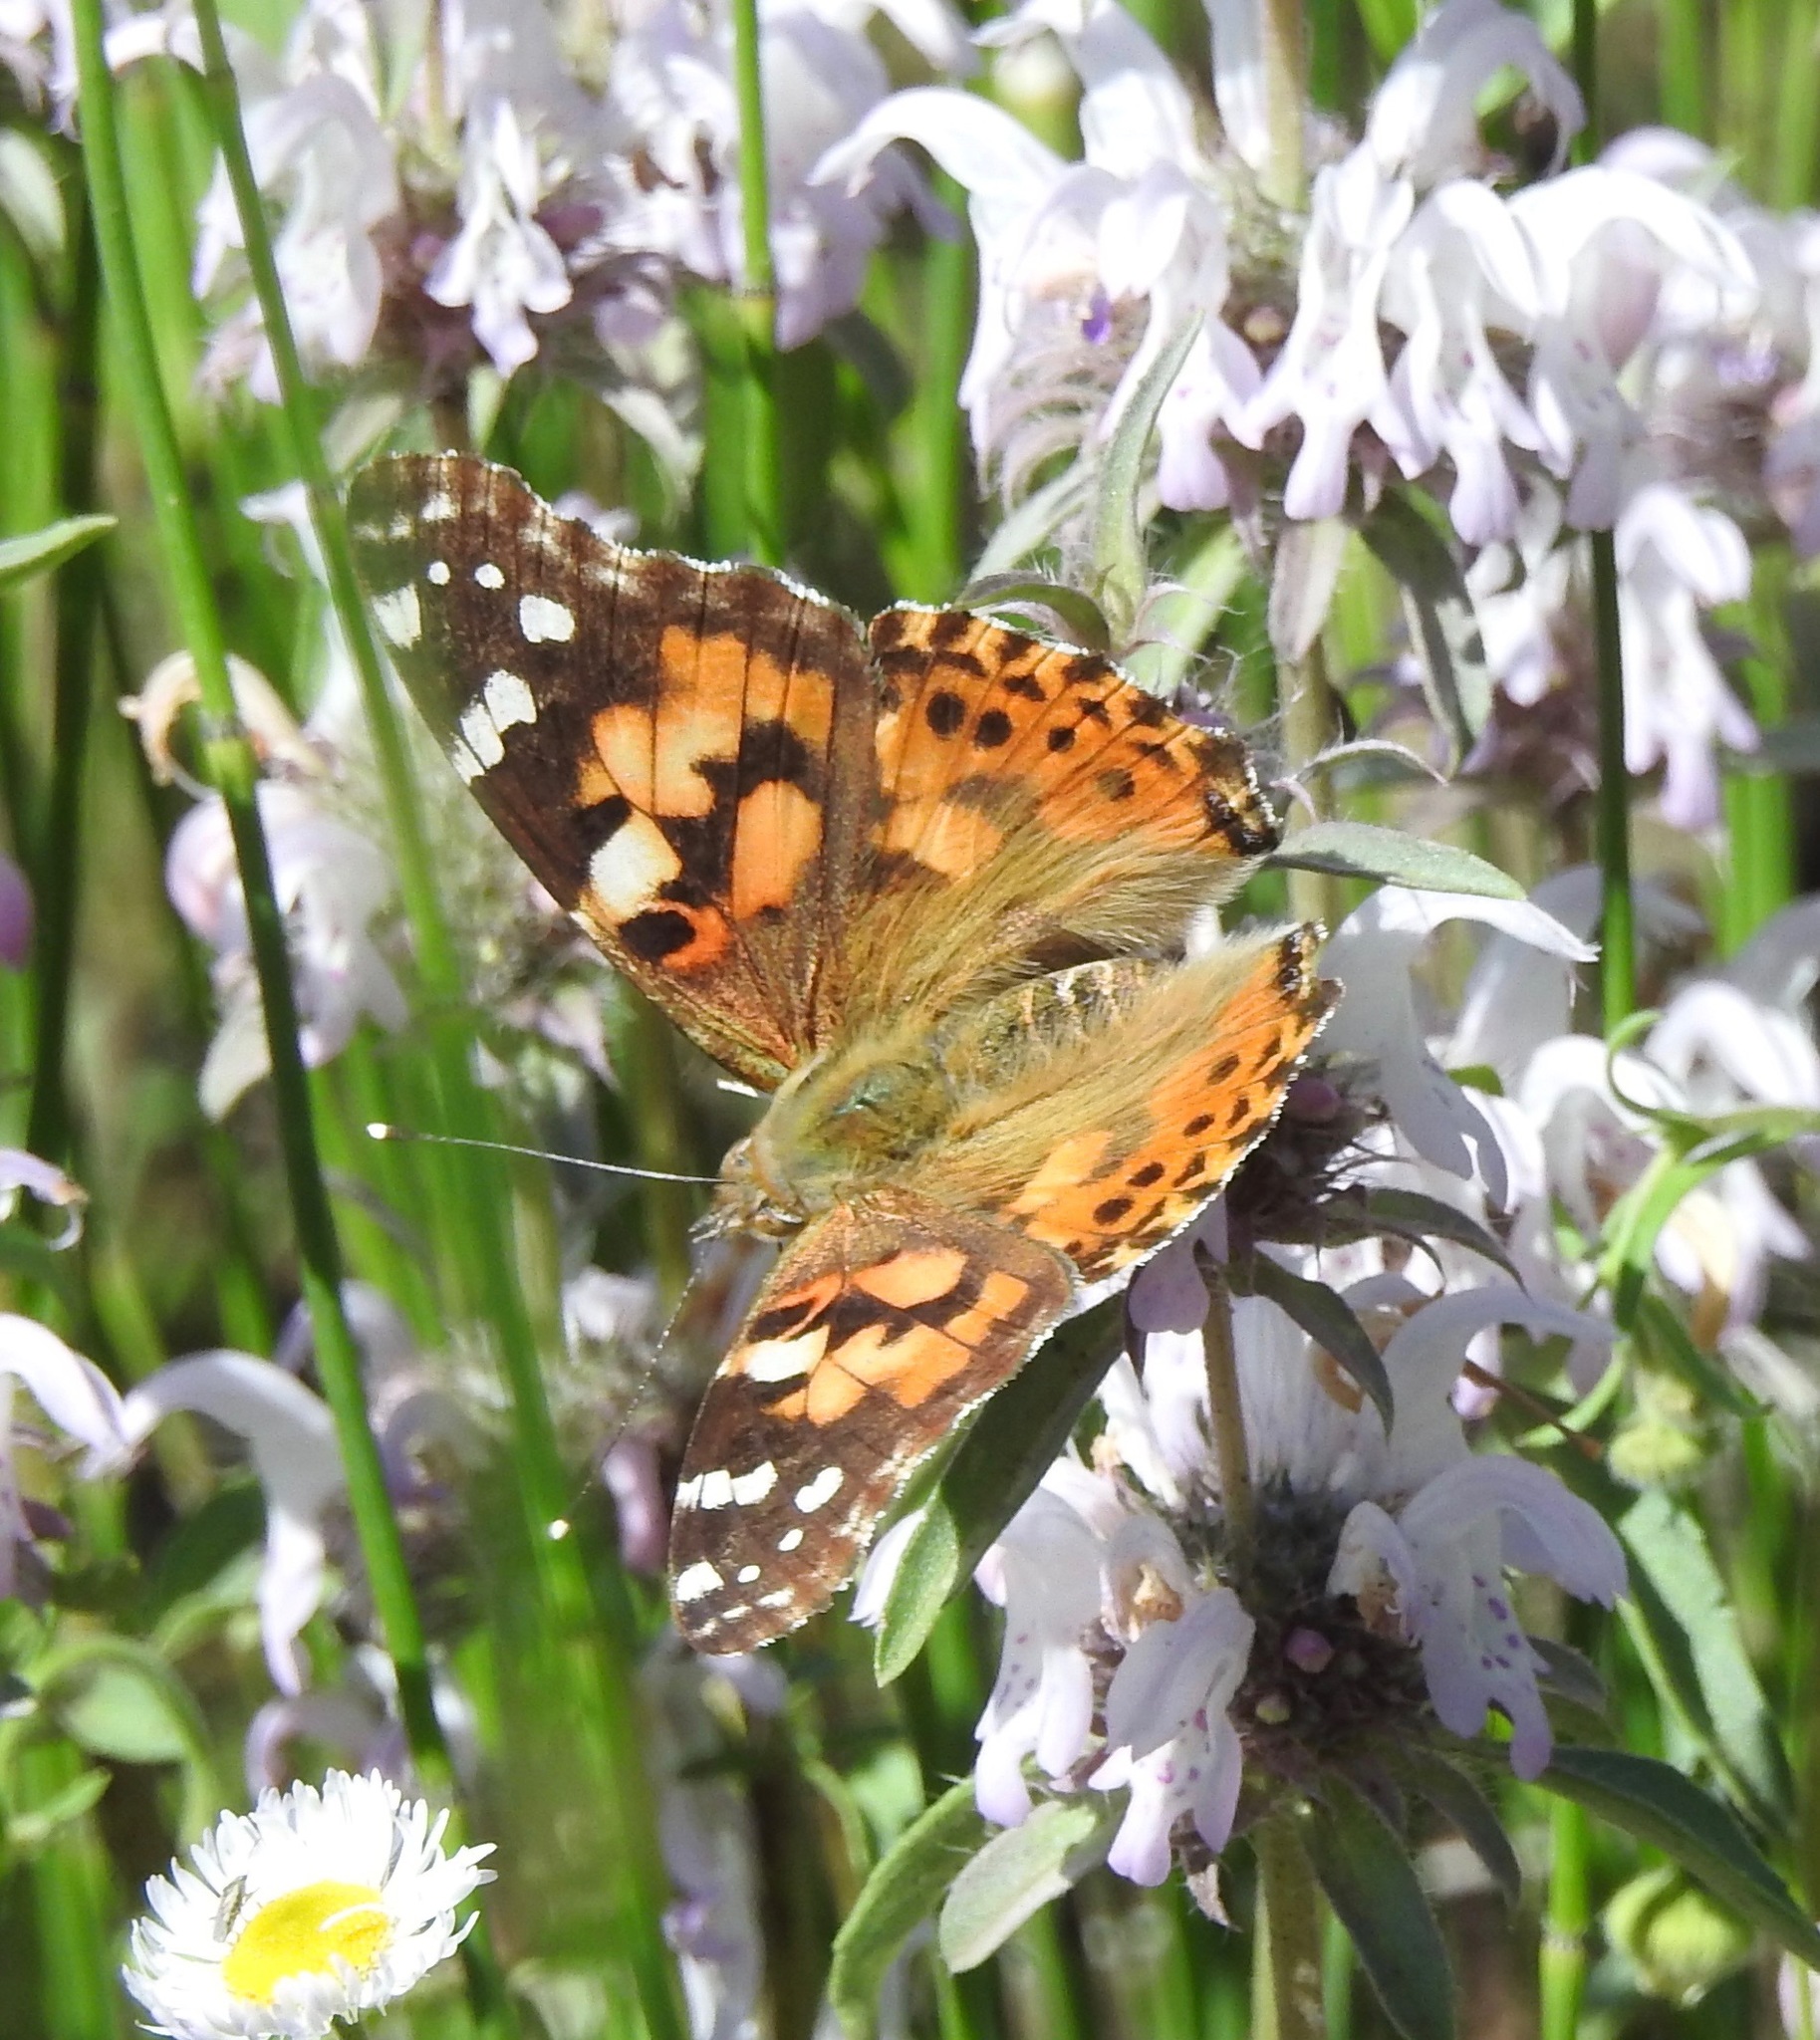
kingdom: Animalia
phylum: Arthropoda
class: Insecta
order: Lepidoptera
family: Nymphalidae
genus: Vanessa
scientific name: Vanessa cardui
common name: Painted lady
